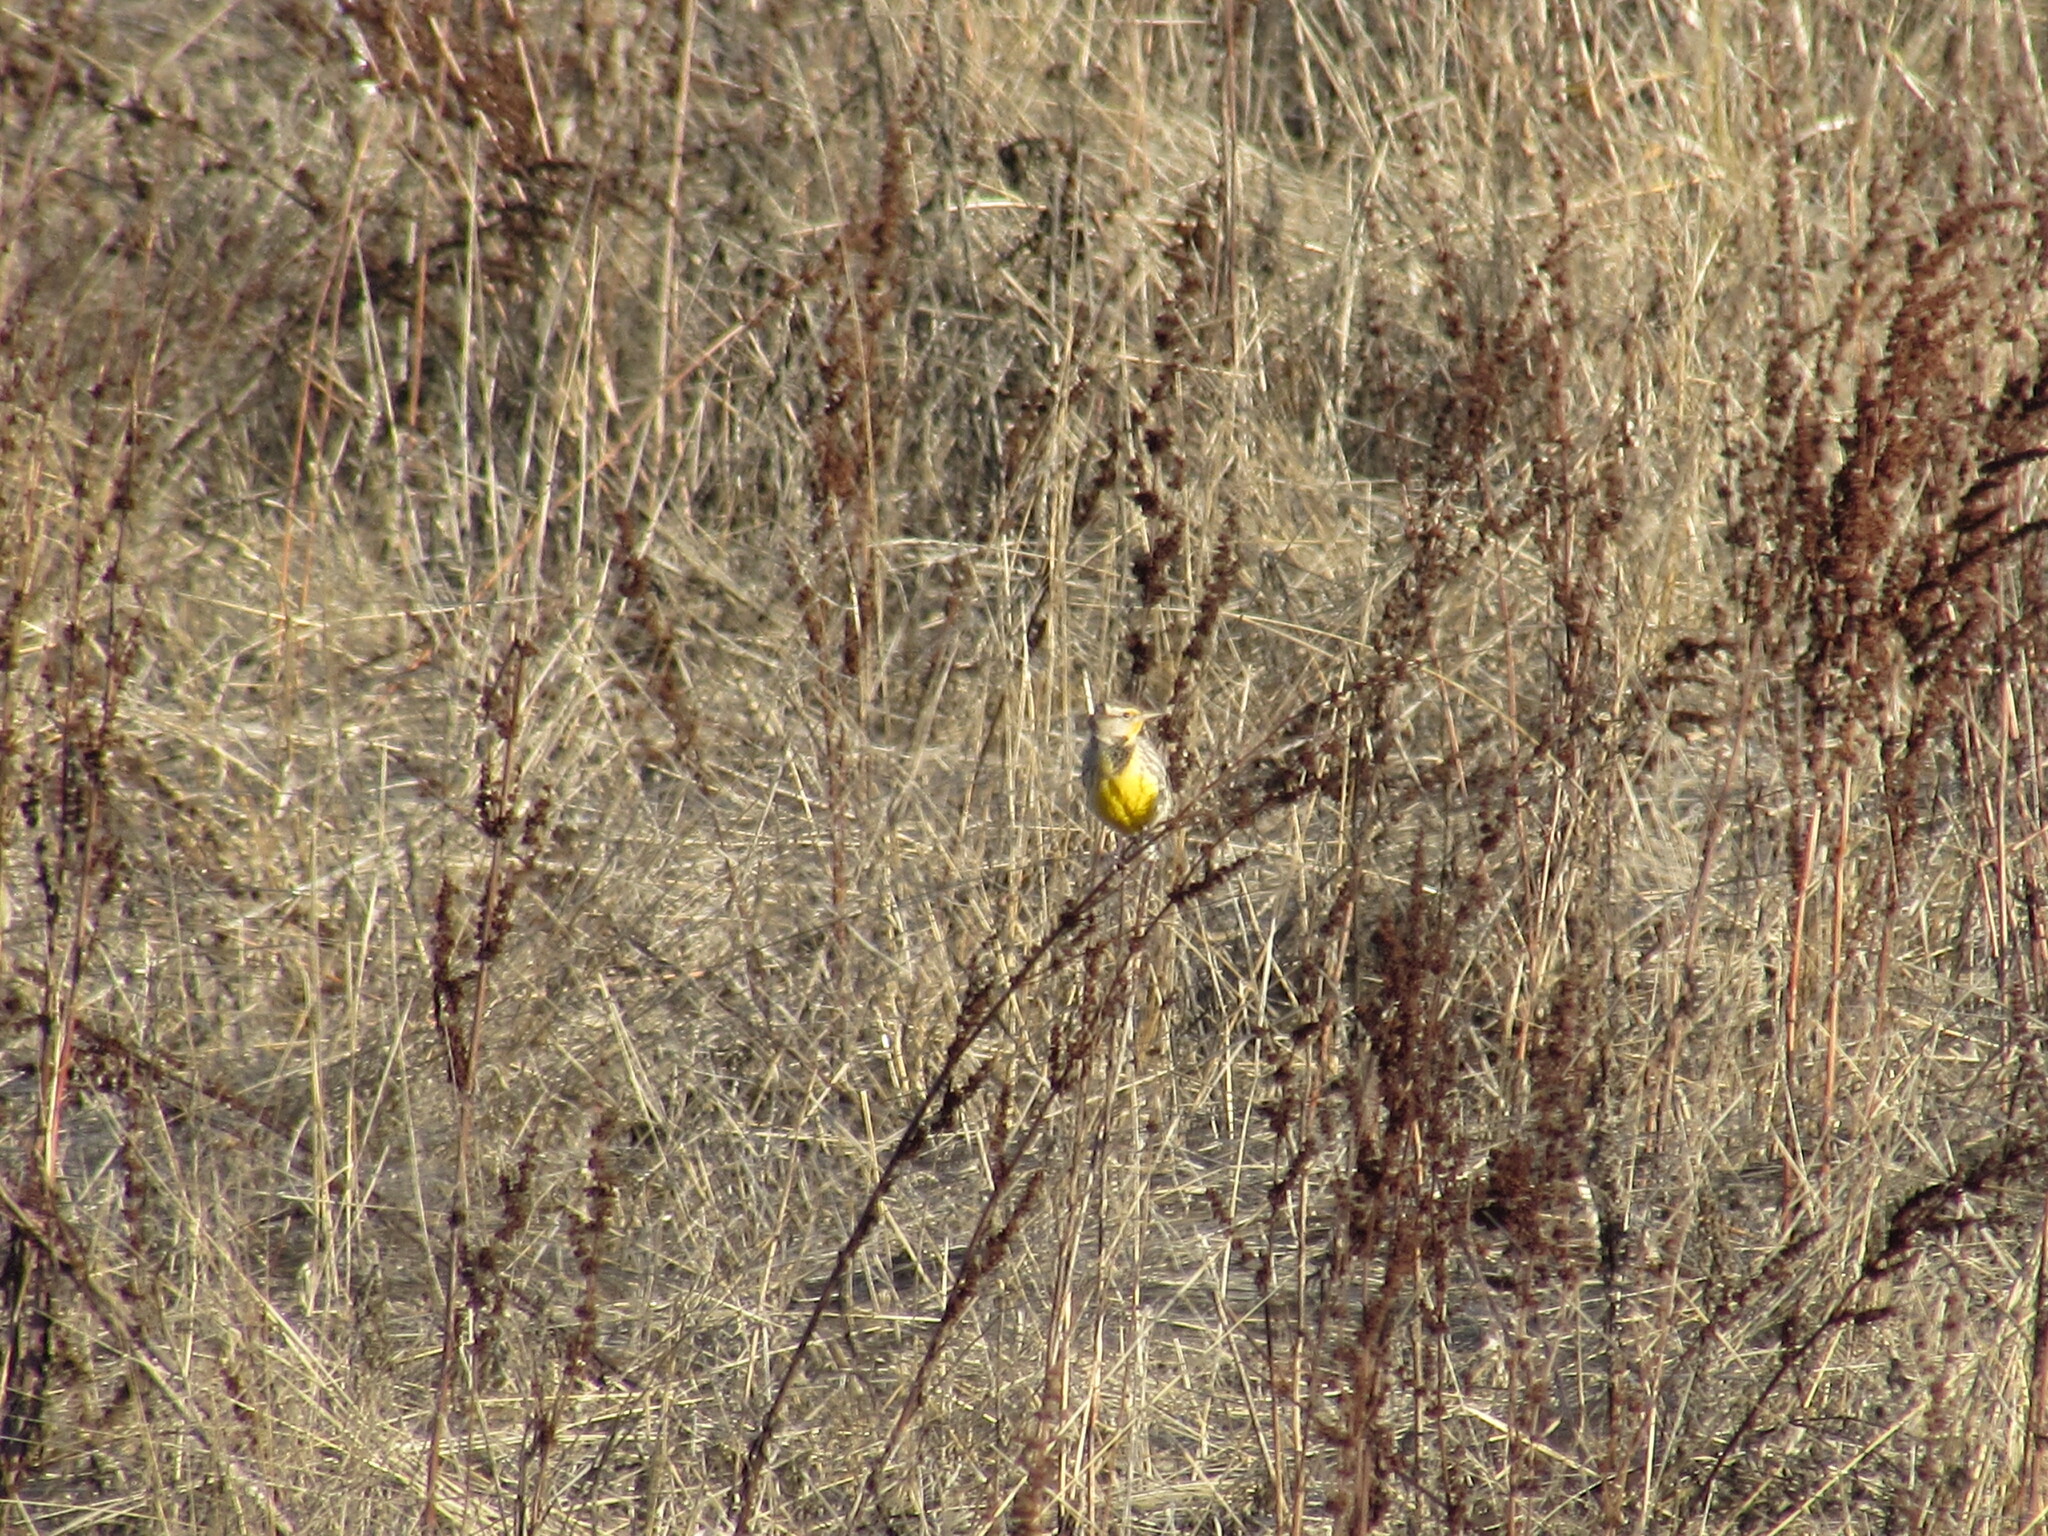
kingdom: Animalia
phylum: Chordata
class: Aves
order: Passeriformes
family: Icteridae
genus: Sturnella
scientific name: Sturnella neglecta
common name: Western meadowlark
